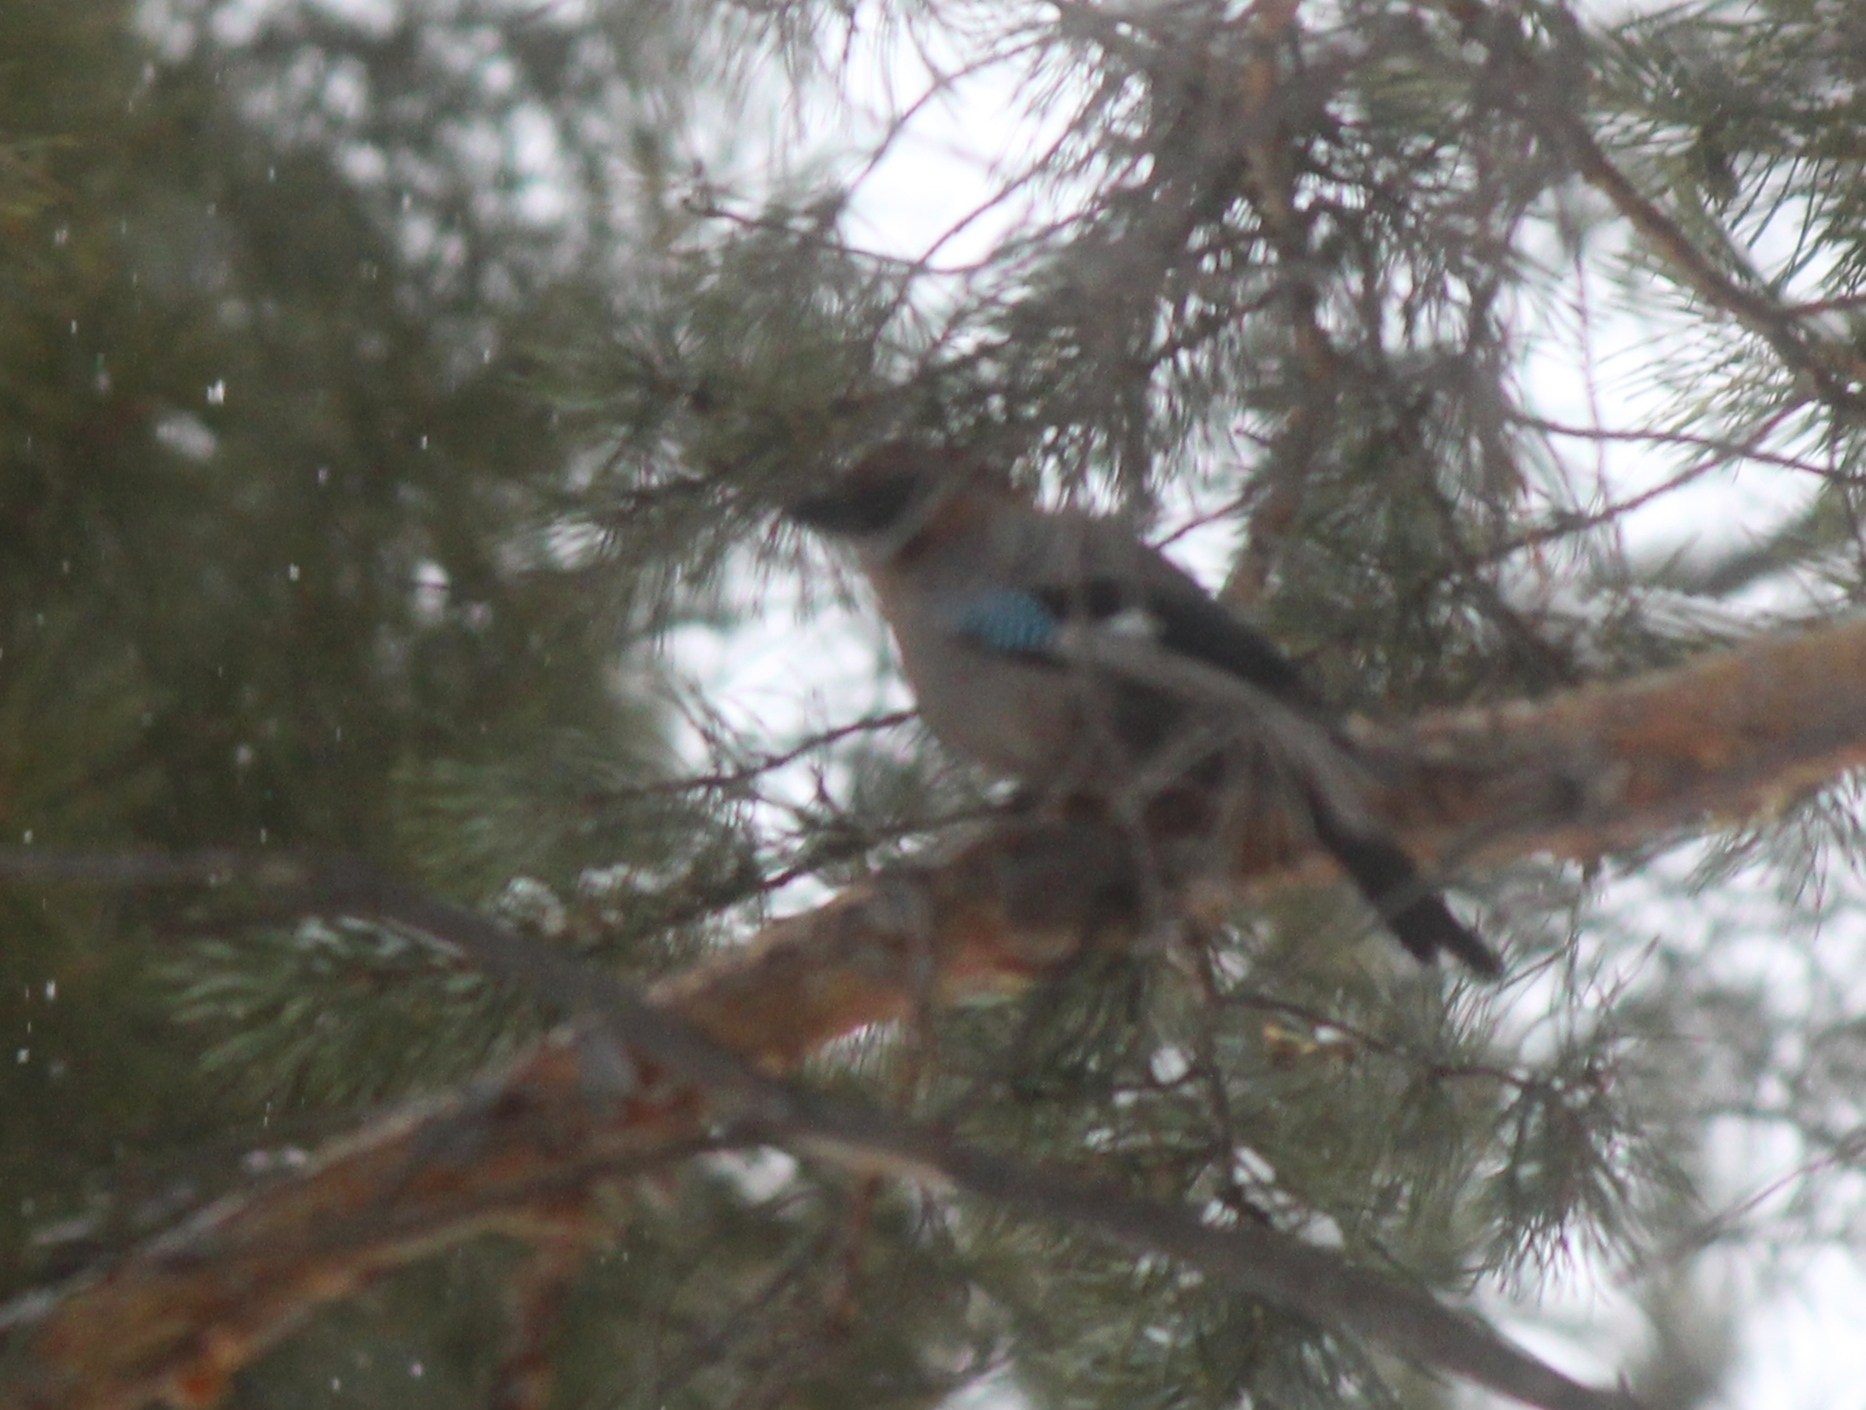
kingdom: Animalia
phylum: Chordata
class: Aves
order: Passeriformes
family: Corvidae
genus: Garrulus
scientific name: Garrulus glandarius
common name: Eurasian jay
